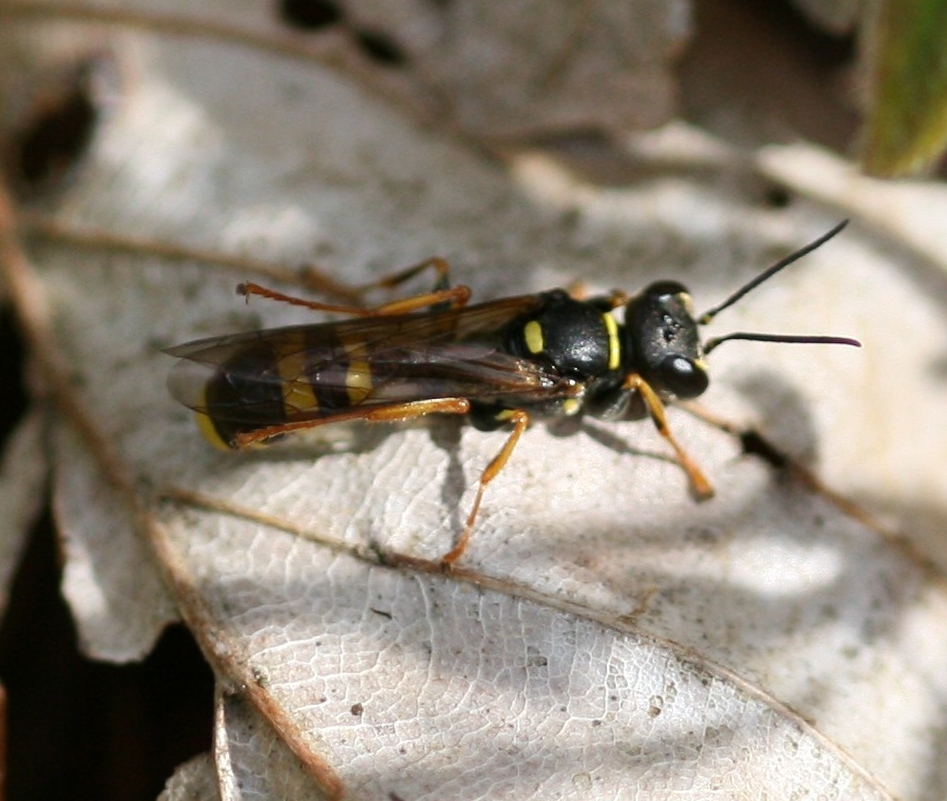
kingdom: Animalia
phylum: Arthropoda
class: Insecta
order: Hymenoptera
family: Crabronidae
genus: Mellinus
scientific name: Mellinus arvensis
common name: Field digger wasp
